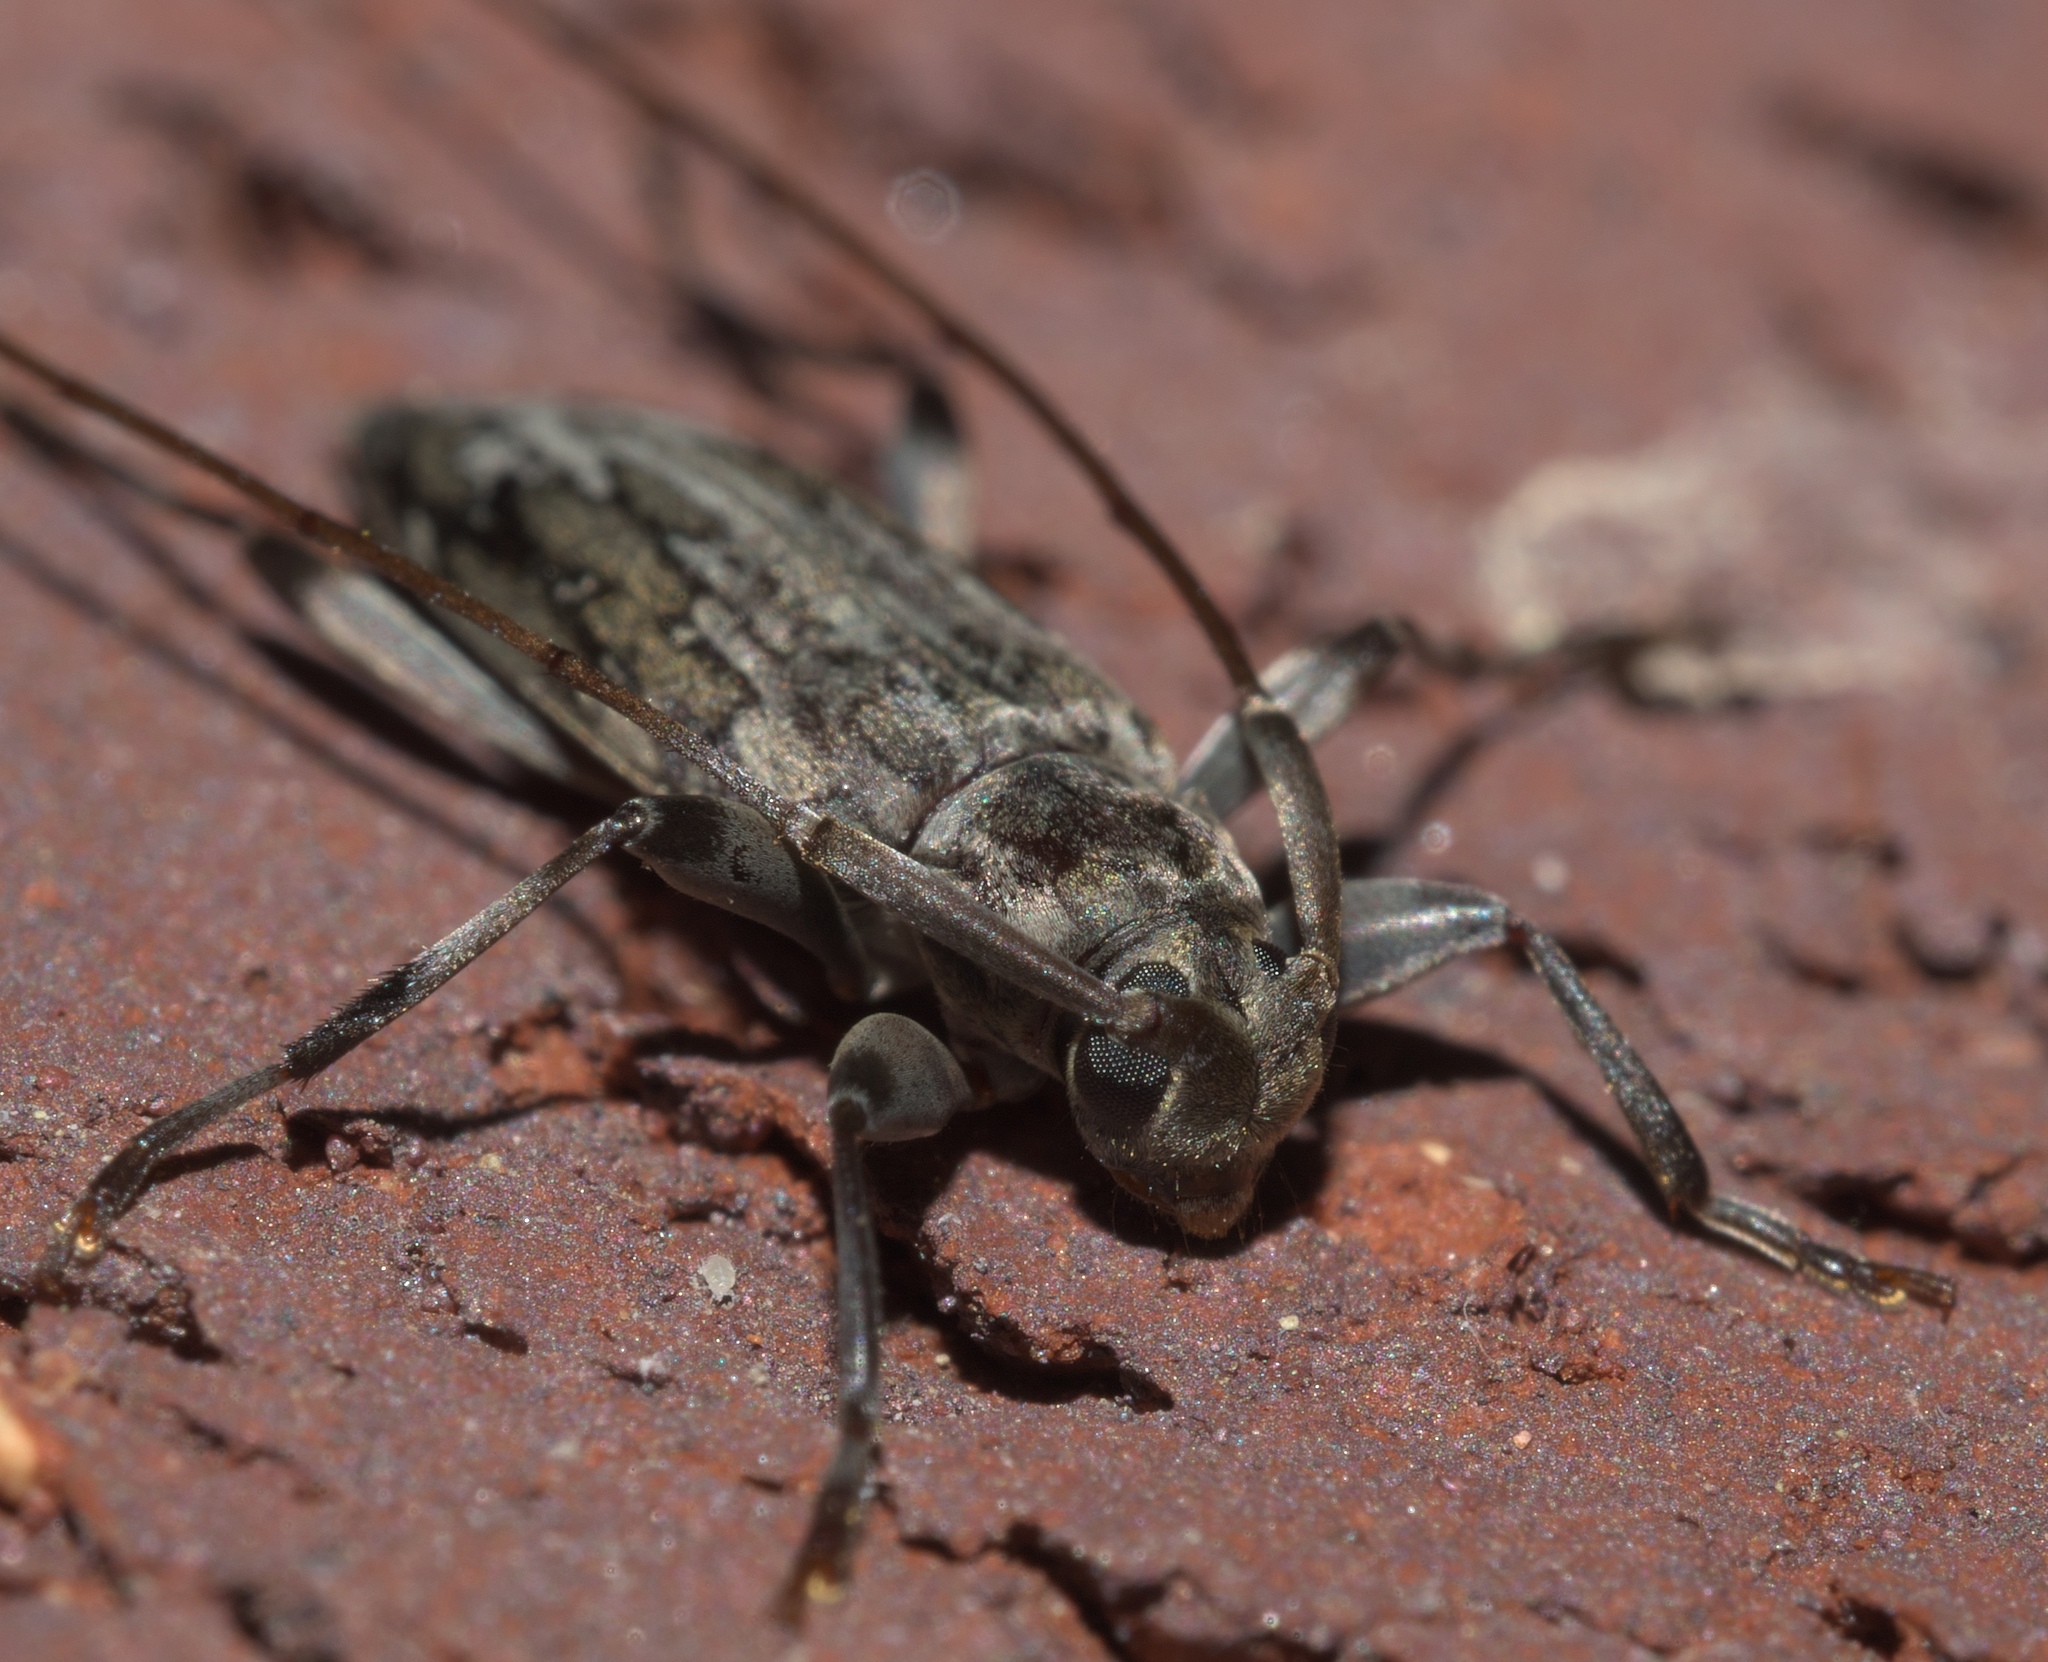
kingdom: Animalia
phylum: Arthropoda
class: Insecta
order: Coleoptera
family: Cerambycidae
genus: Lepturges
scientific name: Lepturges confluens
